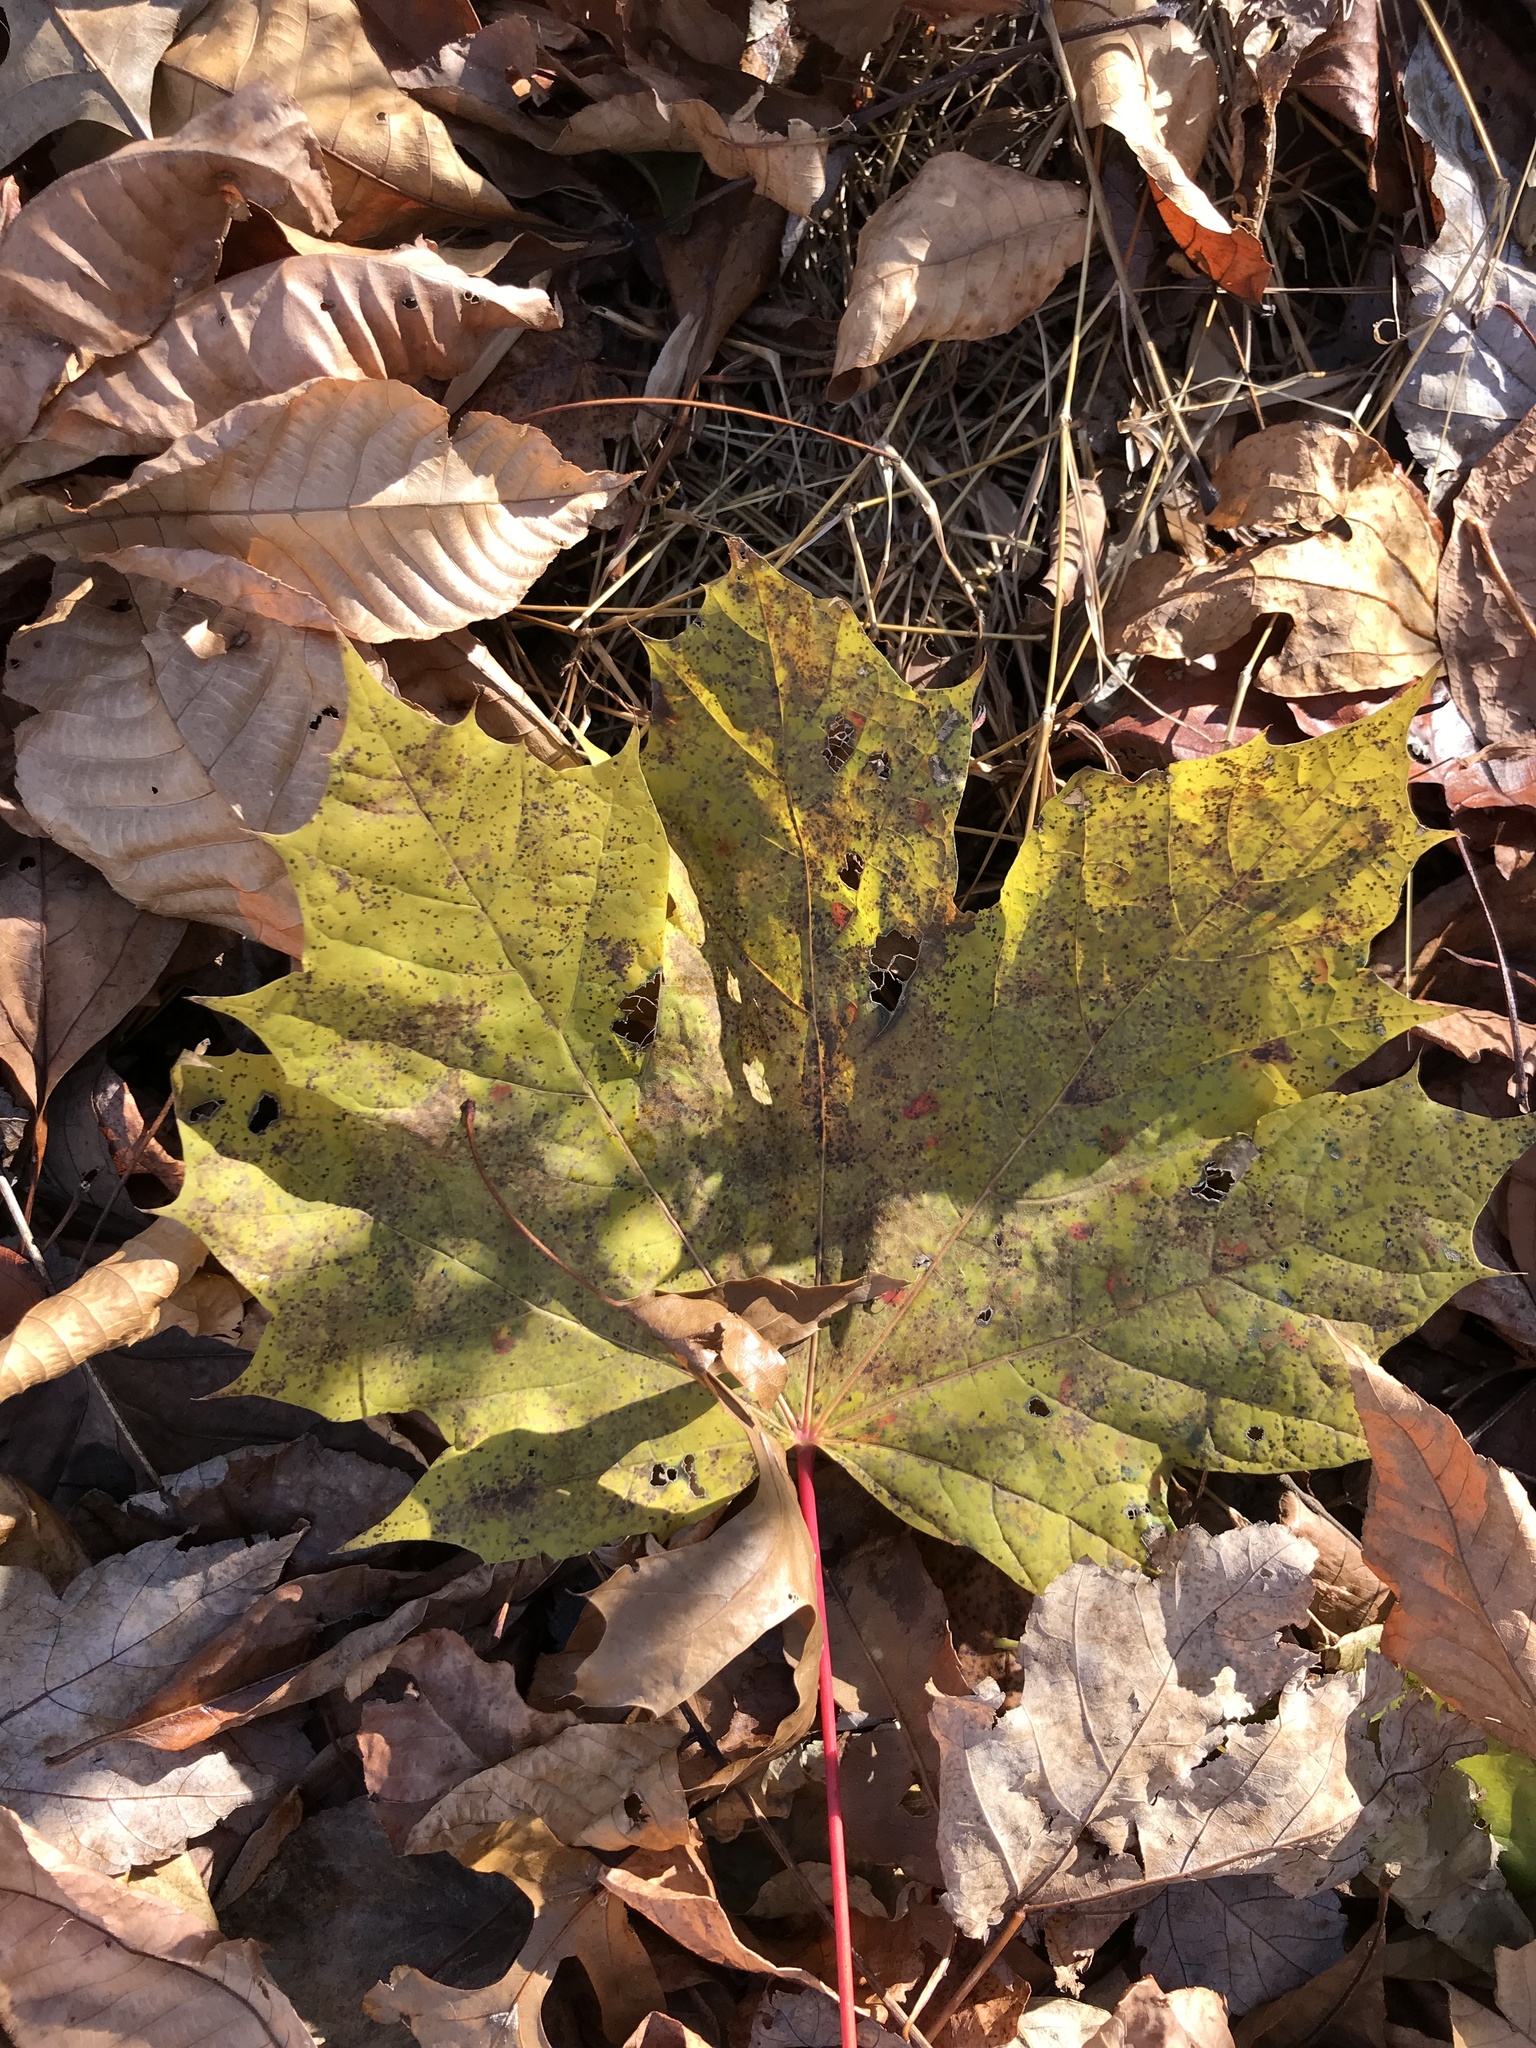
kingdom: Plantae
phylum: Tracheophyta
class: Magnoliopsida
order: Sapindales
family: Sapindaceae
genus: Acer
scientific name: Acer platanoides
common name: Norway maple
